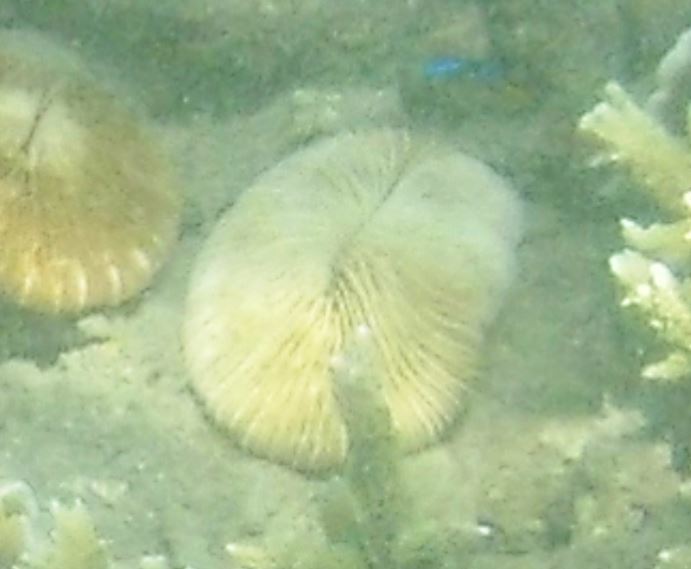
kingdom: Animalia
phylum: Cnidaria
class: Anthozoa
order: Scleractinia
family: Fungiidae
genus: Pleuractis
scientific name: Pleuractis paumotensis
